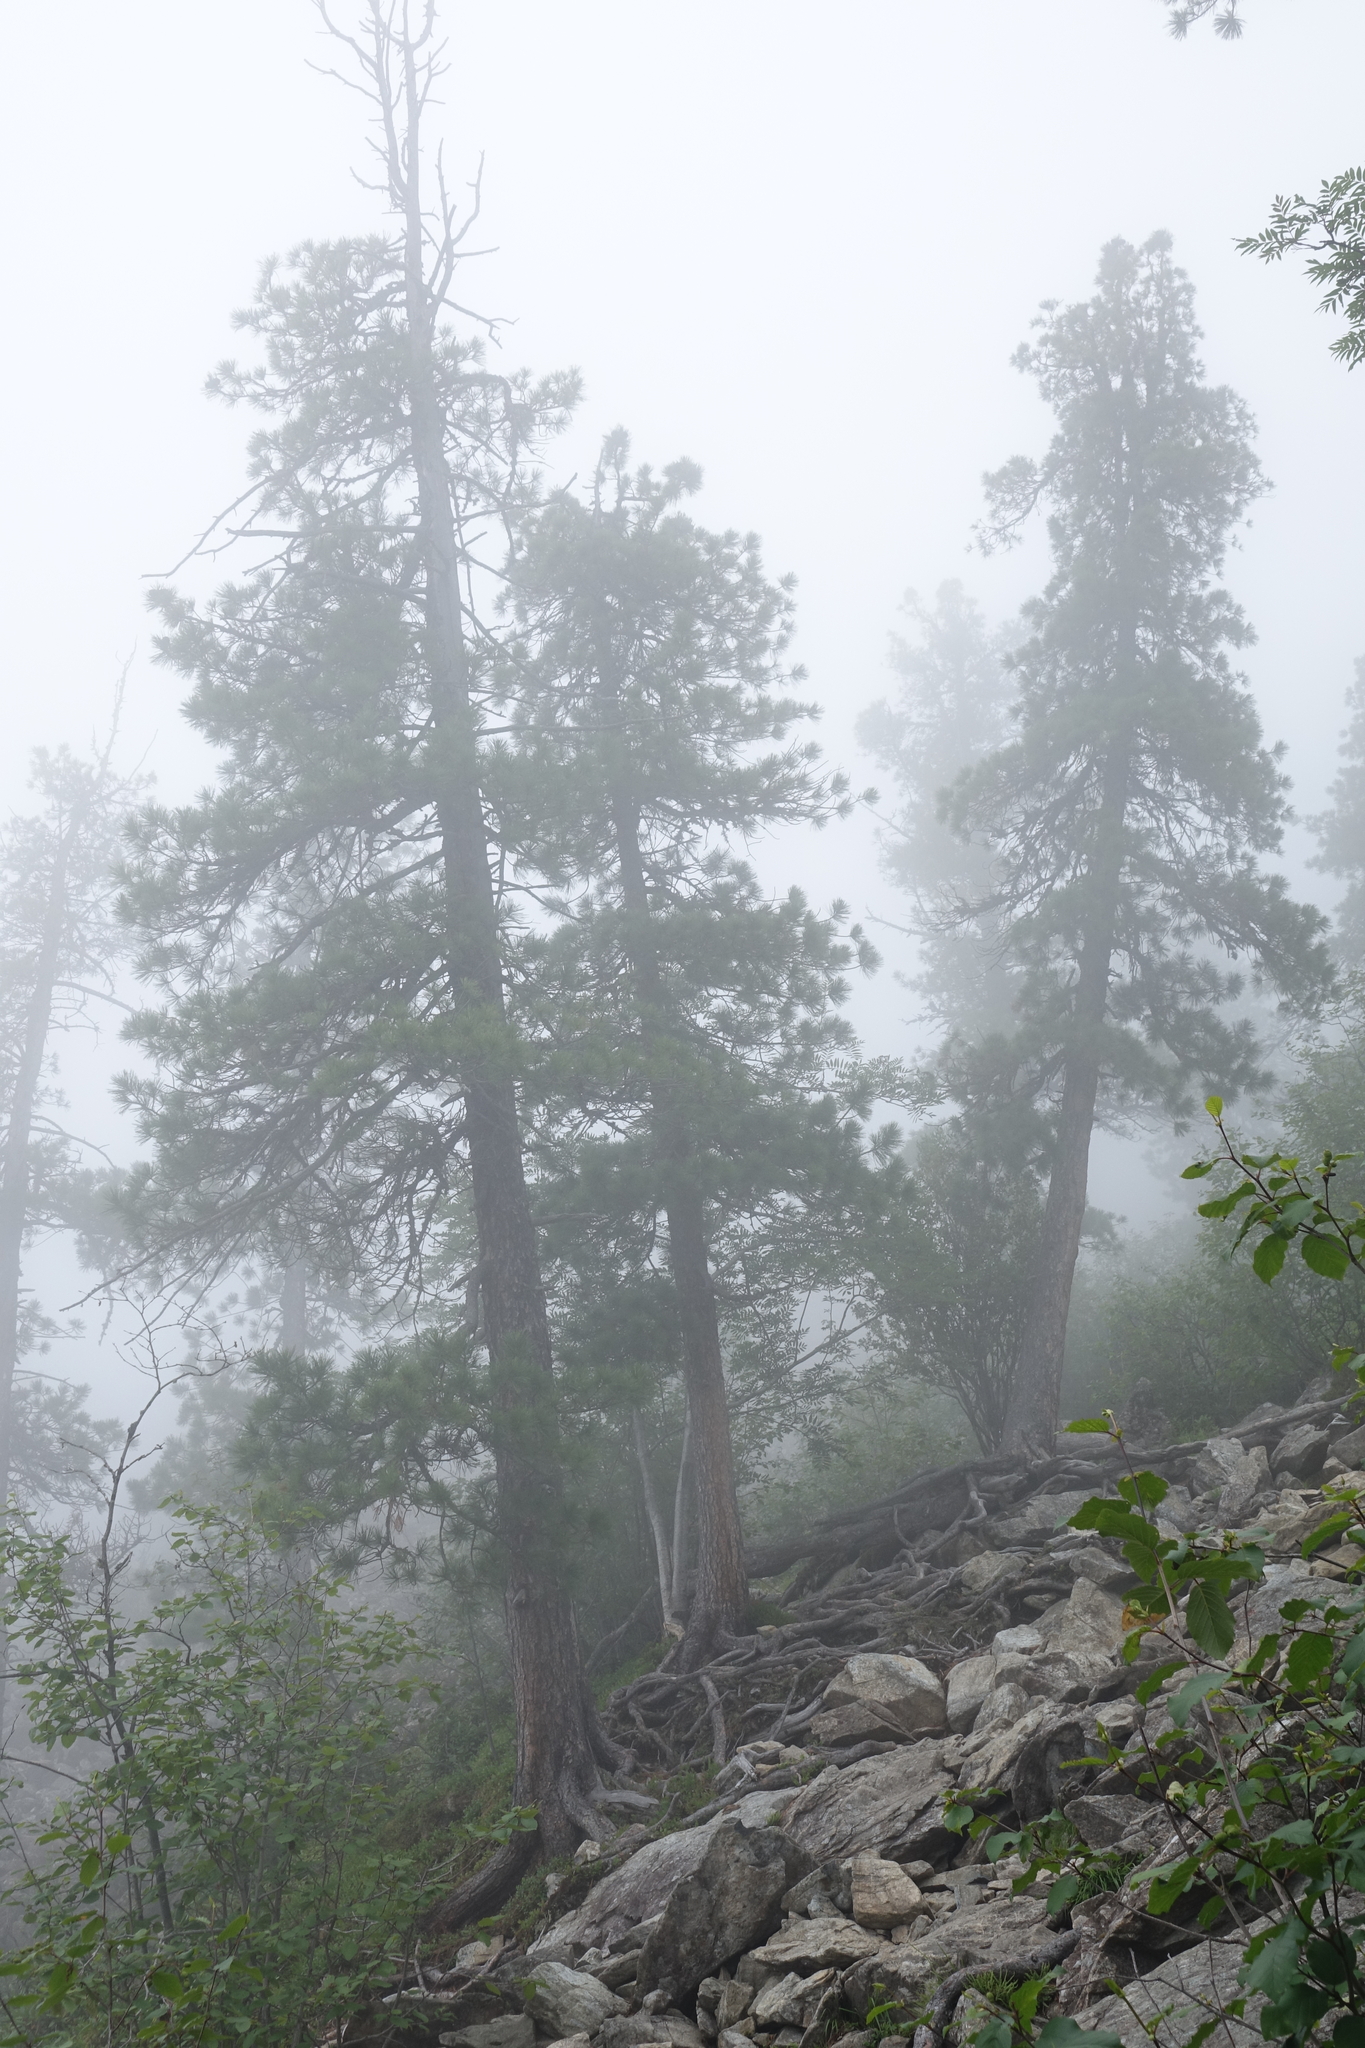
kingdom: Plantae
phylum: Tracheophyta
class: Pinopsida
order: Pinales
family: Pinaceae
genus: Pinus
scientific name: Pinus sibirica
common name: Siberian pine
